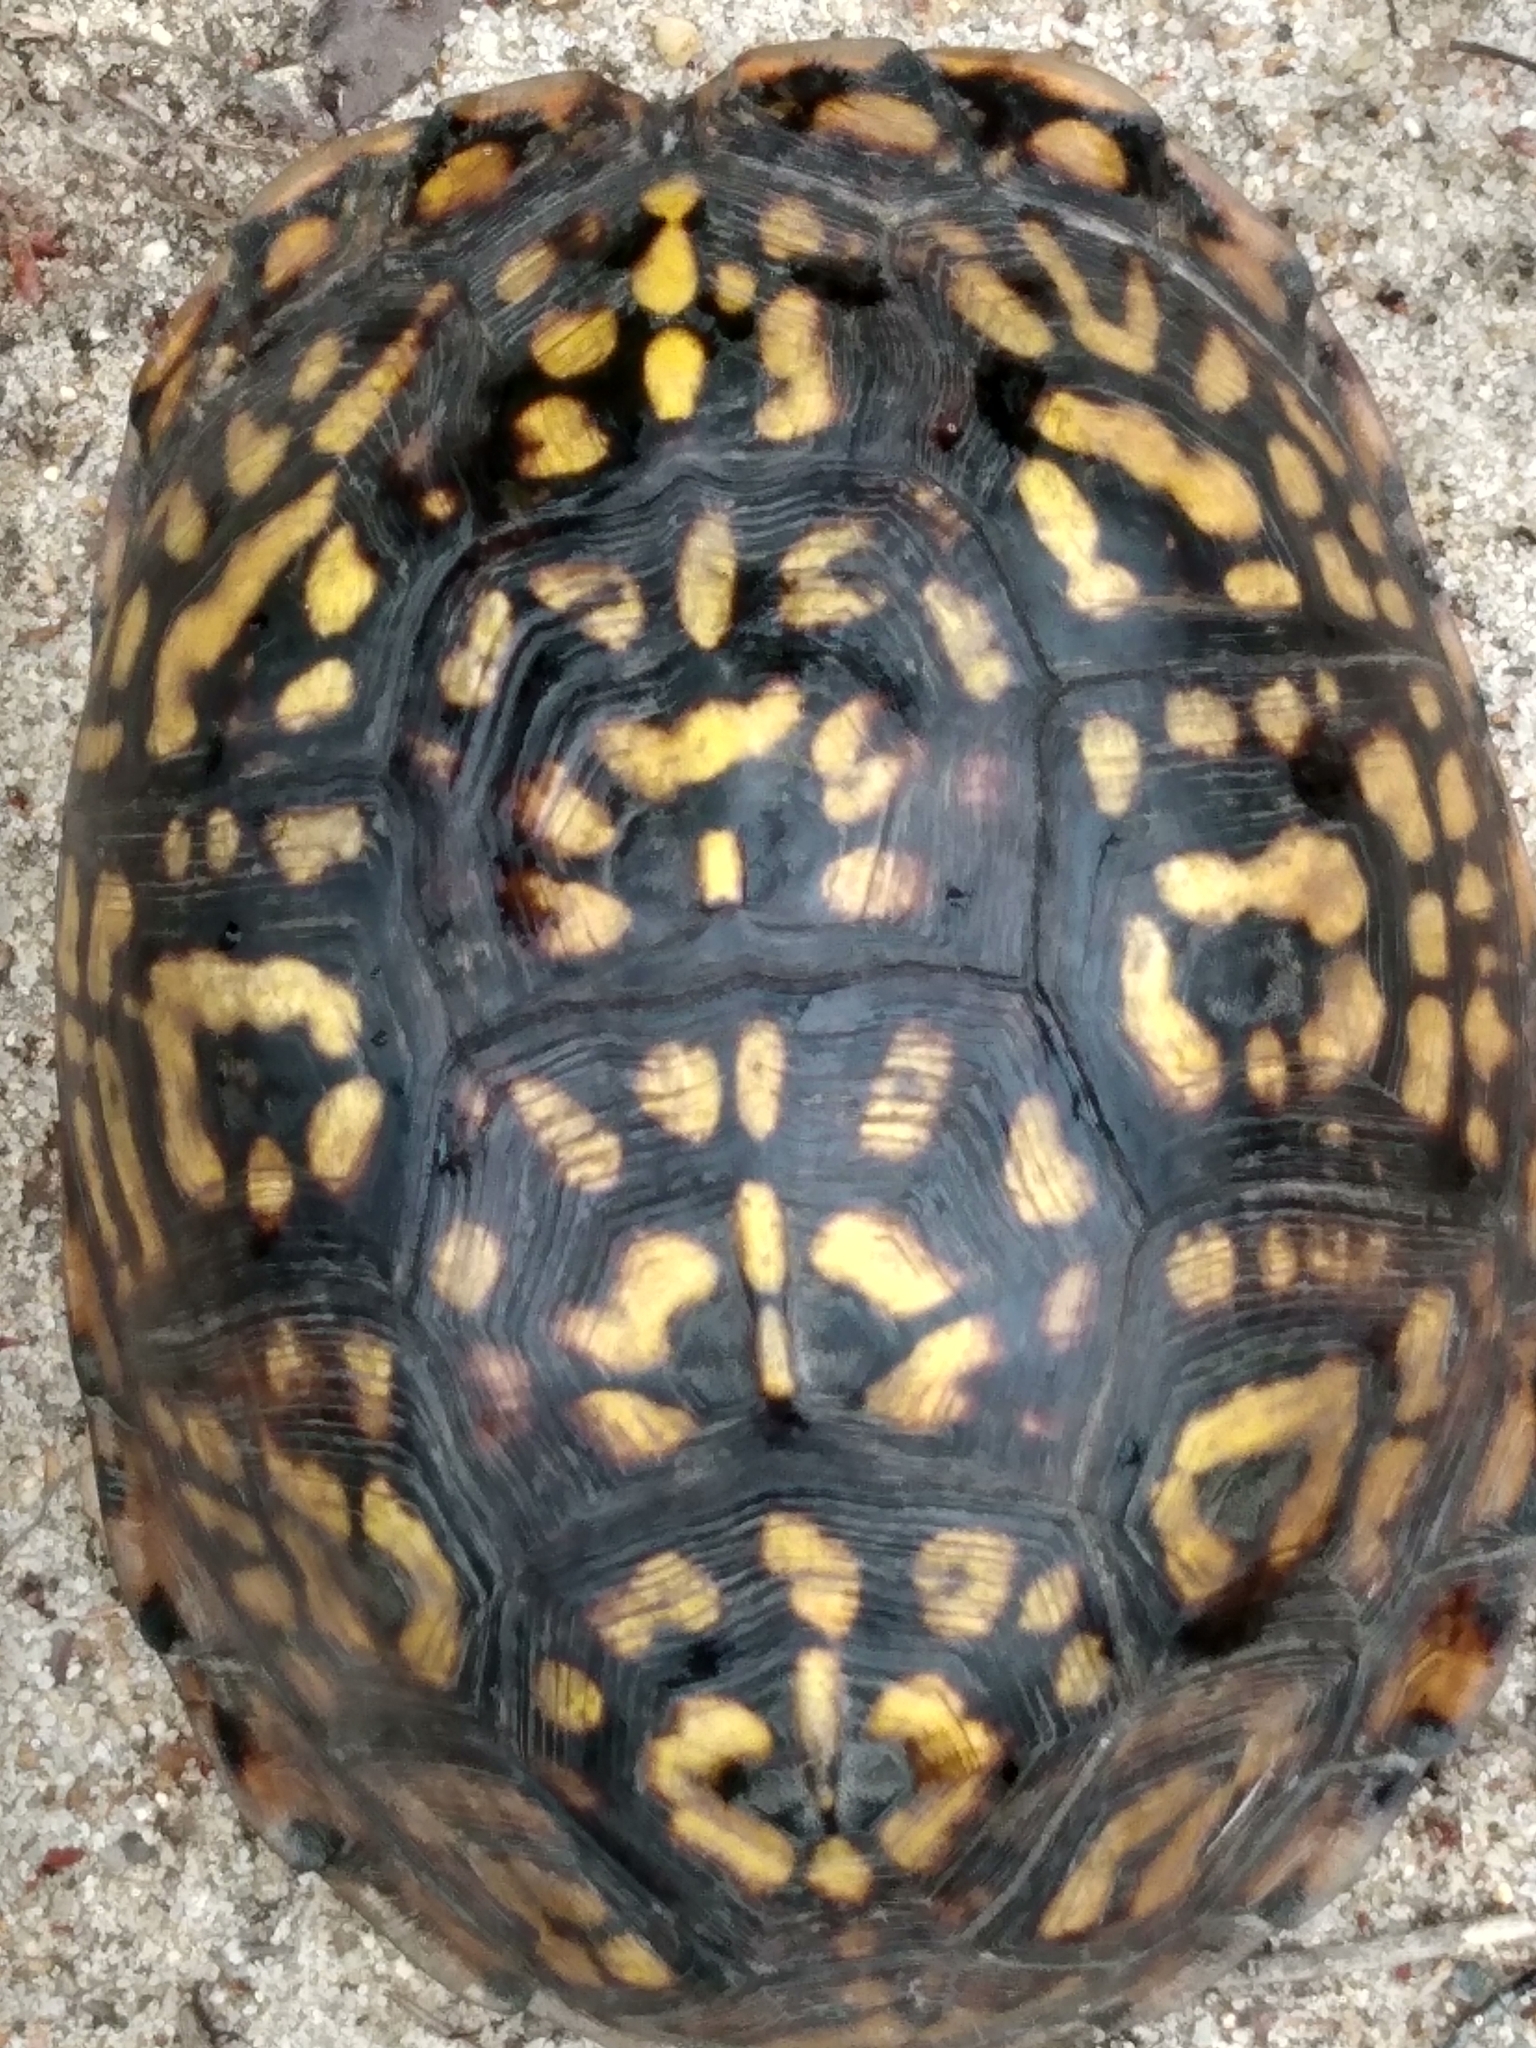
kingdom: Animalia
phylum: Chordata
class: Testudines
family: Emydidae
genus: Terrapene
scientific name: Terrapene carolina
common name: Common box turtle
